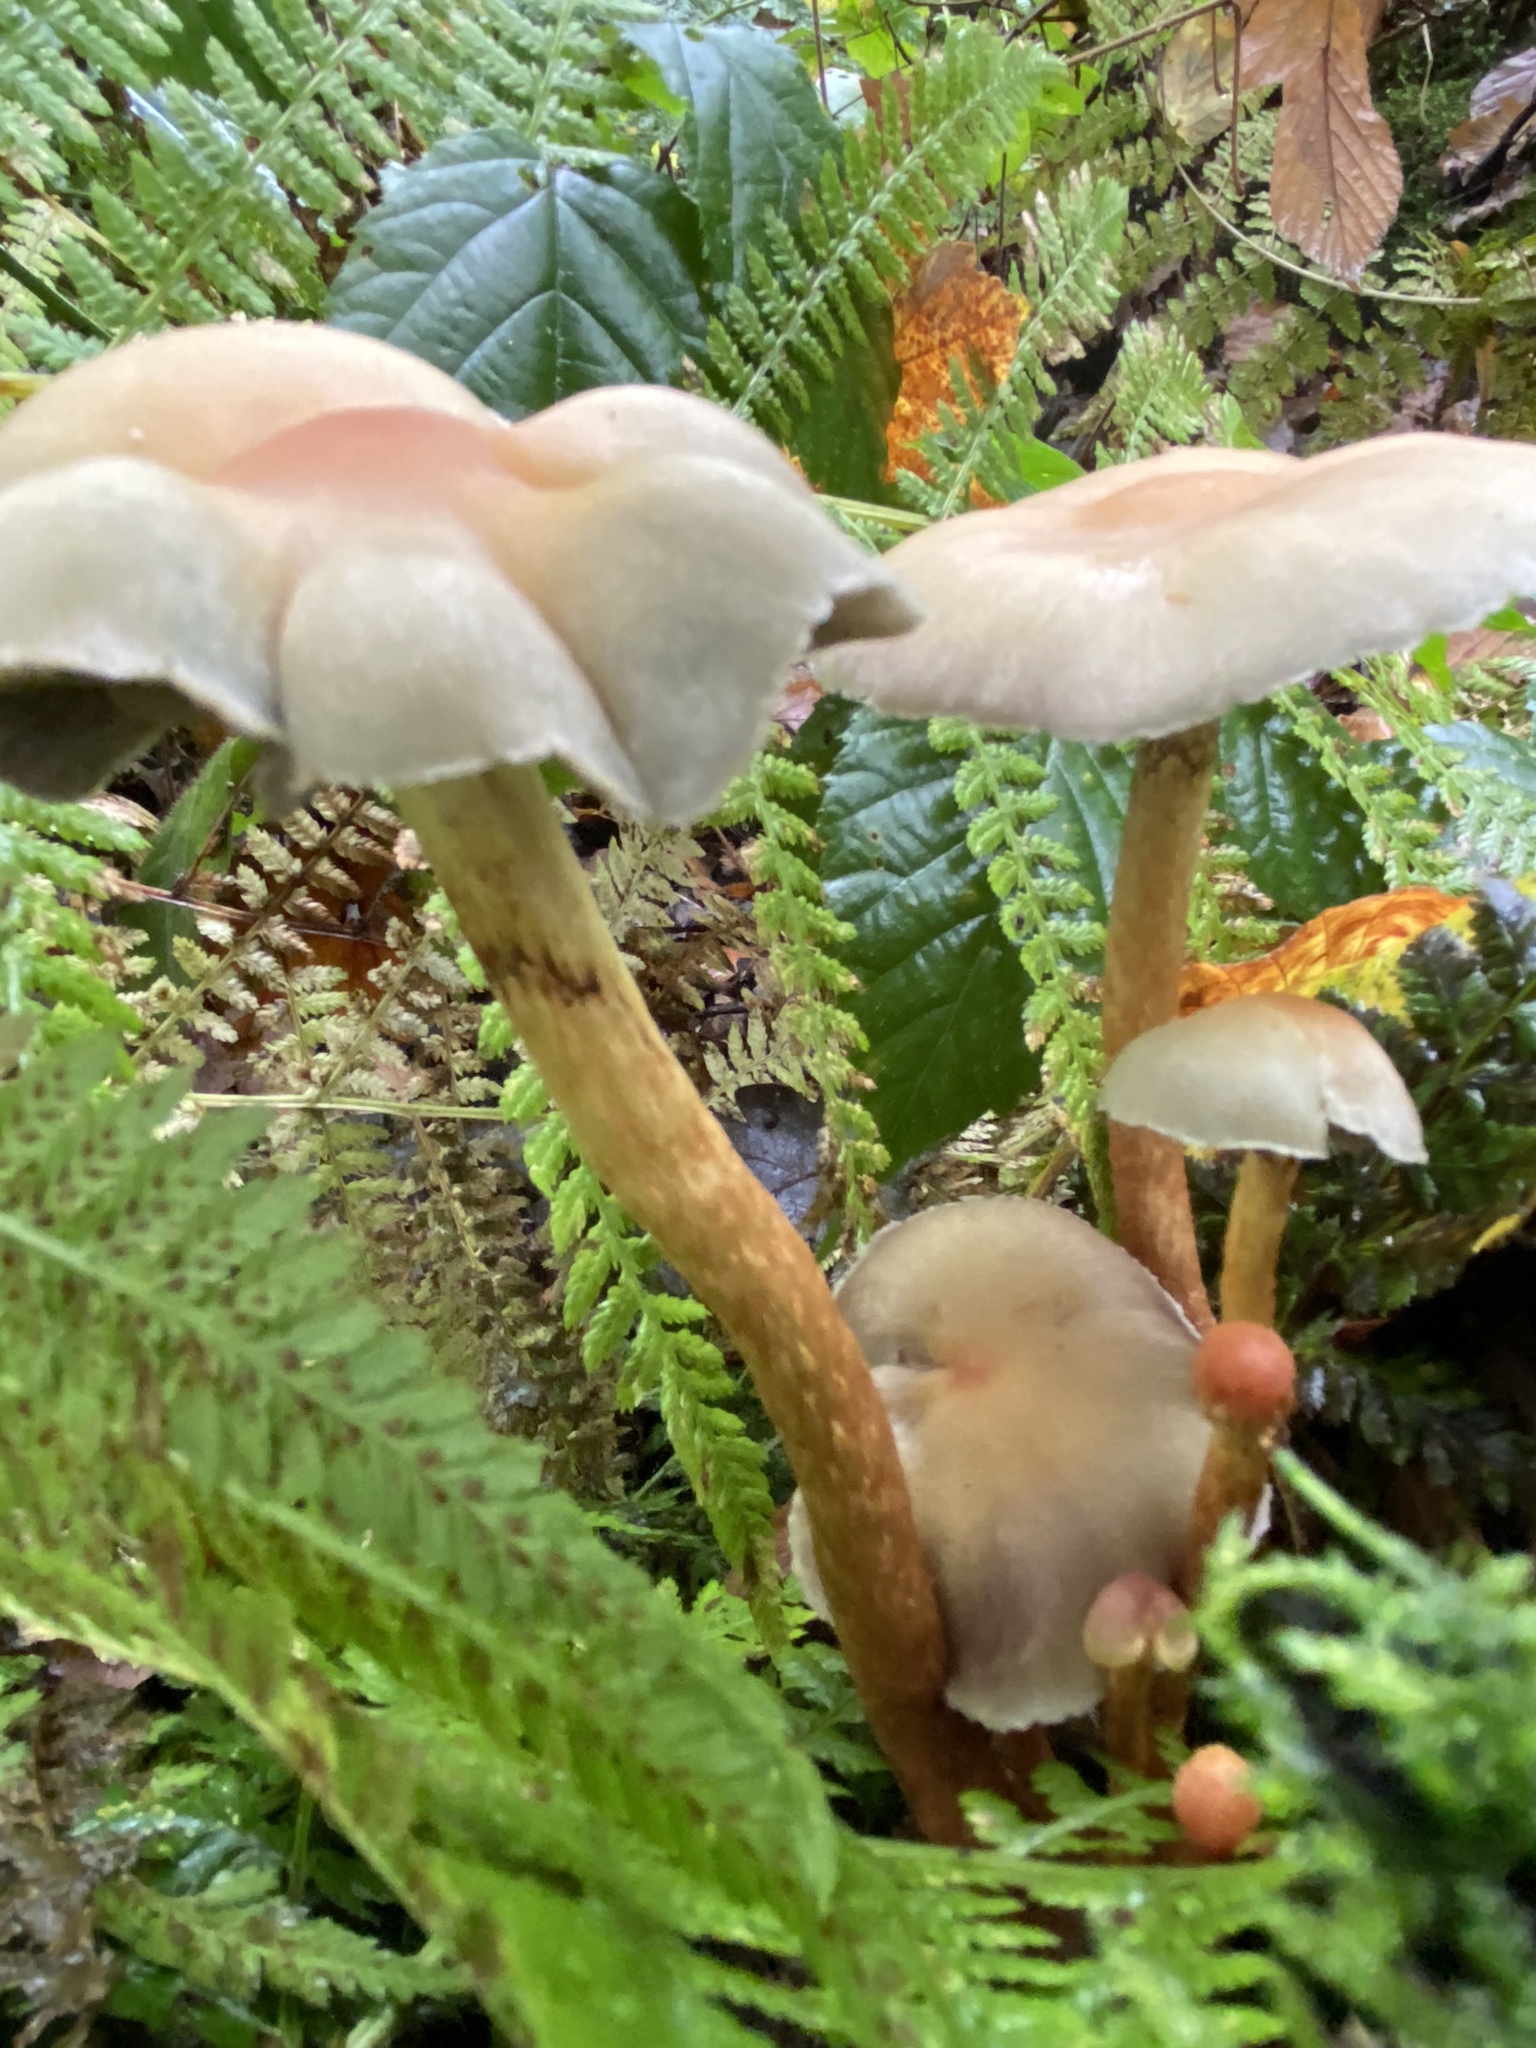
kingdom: Fungi
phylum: Basidiomycota
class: Agaricomycetes
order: Agaricales
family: Strophariaceae
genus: Hypholoma
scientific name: Hypholoma capnoides
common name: Conifer tuft
